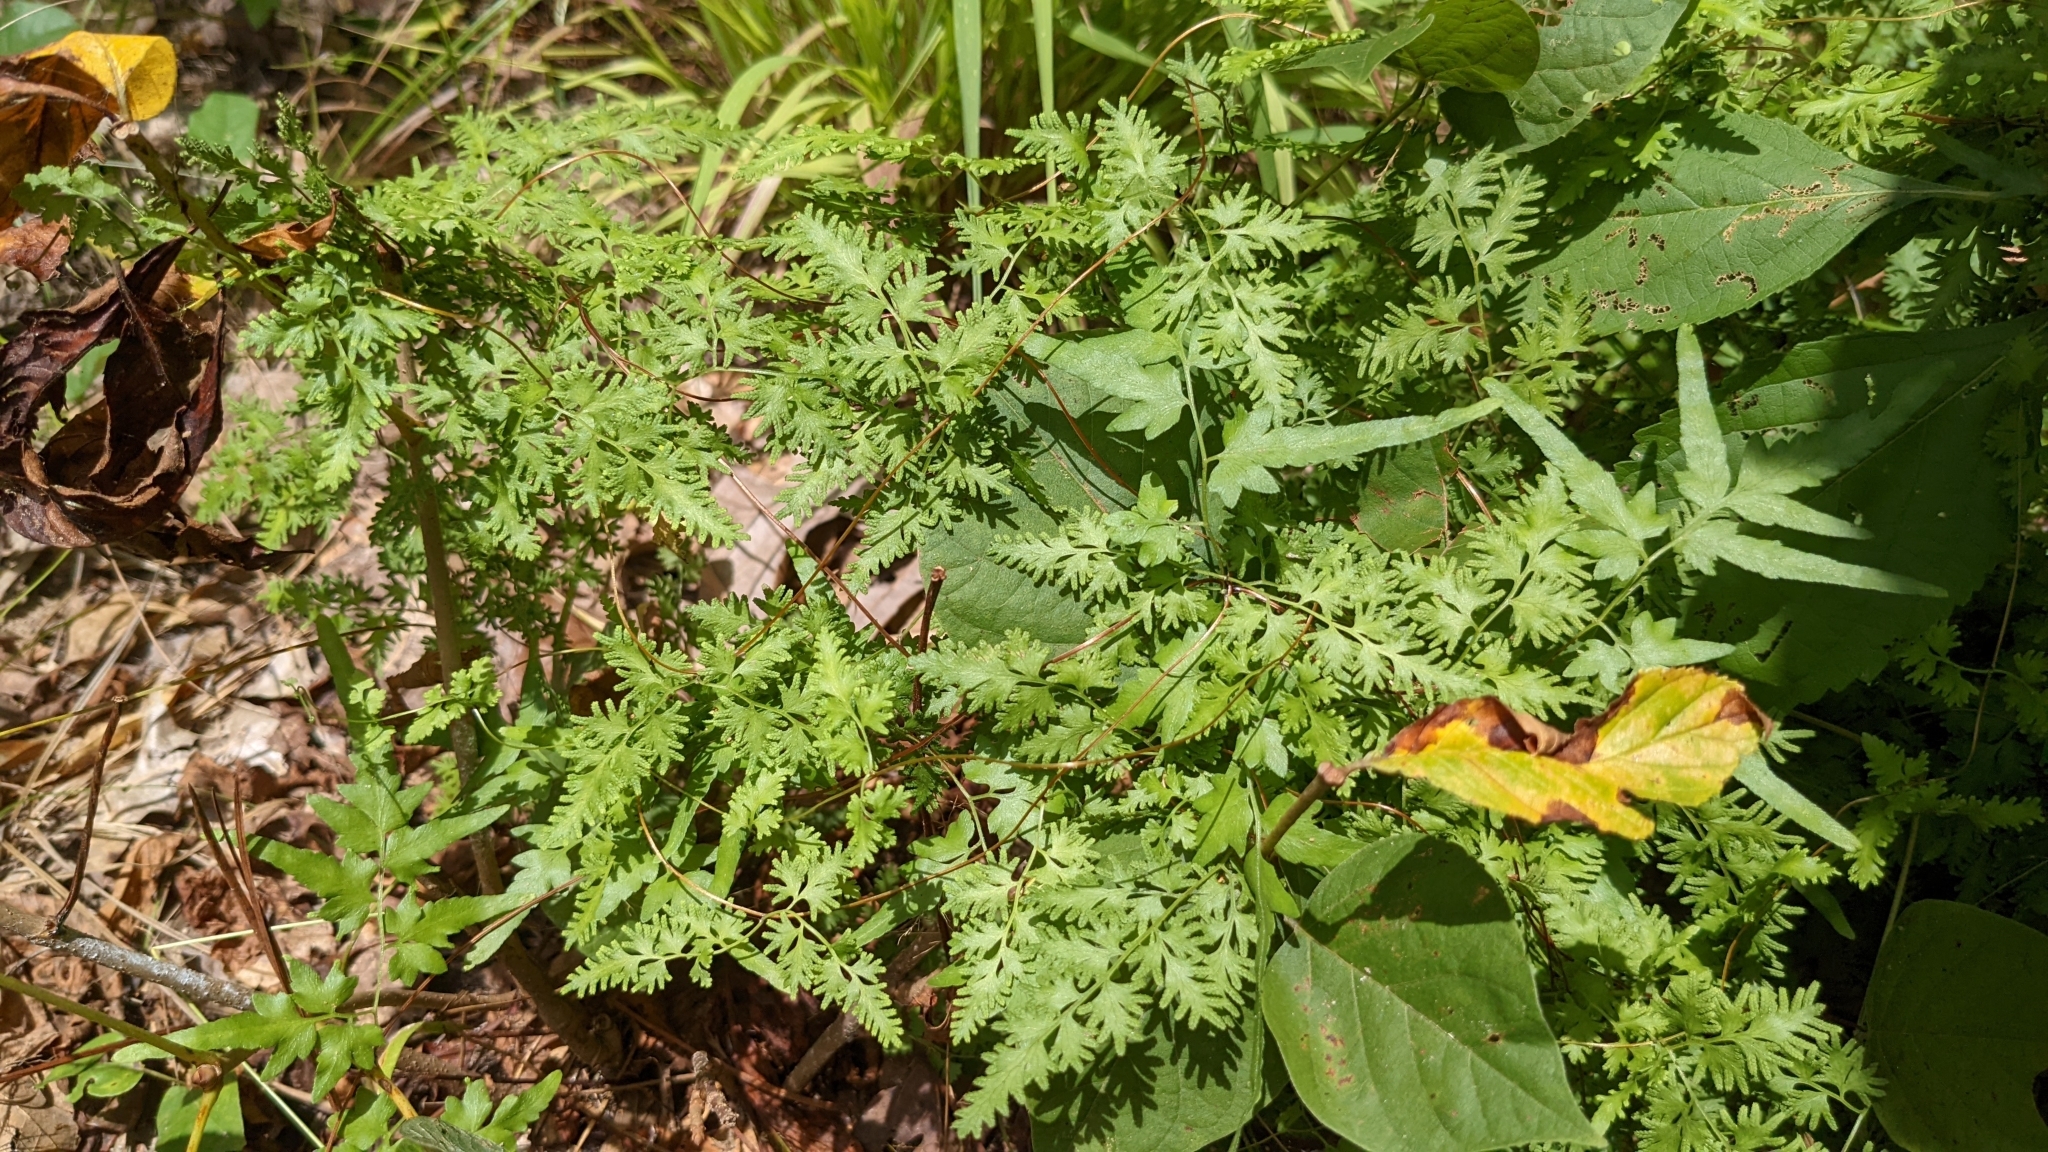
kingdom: Plantae
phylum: Tracheophyta
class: Polypodiopsida
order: Schizaeales
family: Lygodiaceae
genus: Lygodium
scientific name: Lygodium japonicum
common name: Japanese climbing fern
